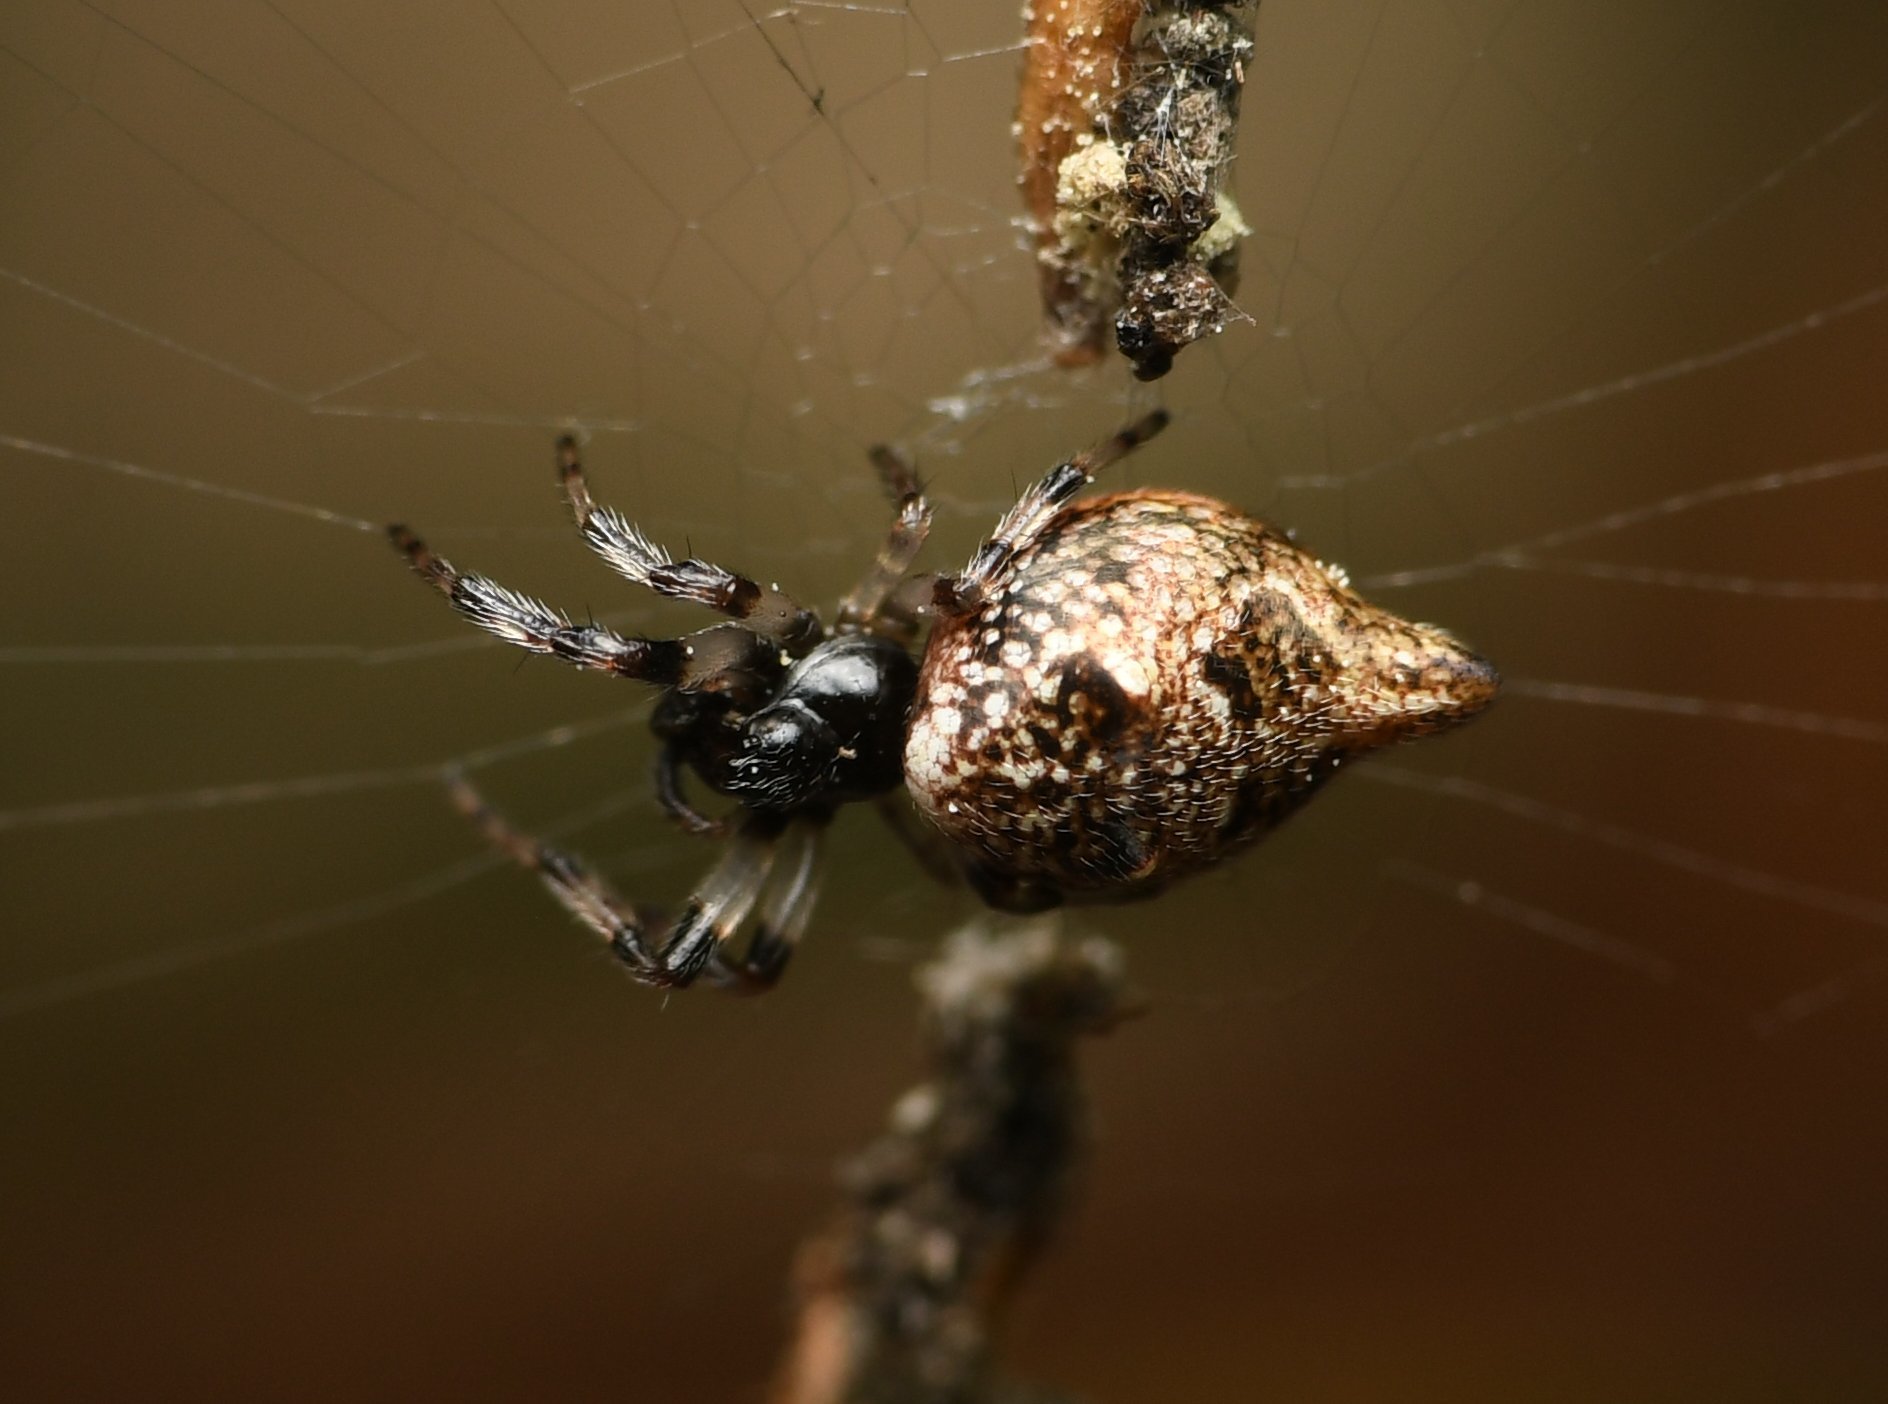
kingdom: Animalia
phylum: Arthropoda
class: Arachnida
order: Araneae
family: Araneidae
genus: Cyclosa
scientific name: Cyclosa turbinata
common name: Orb weavers
